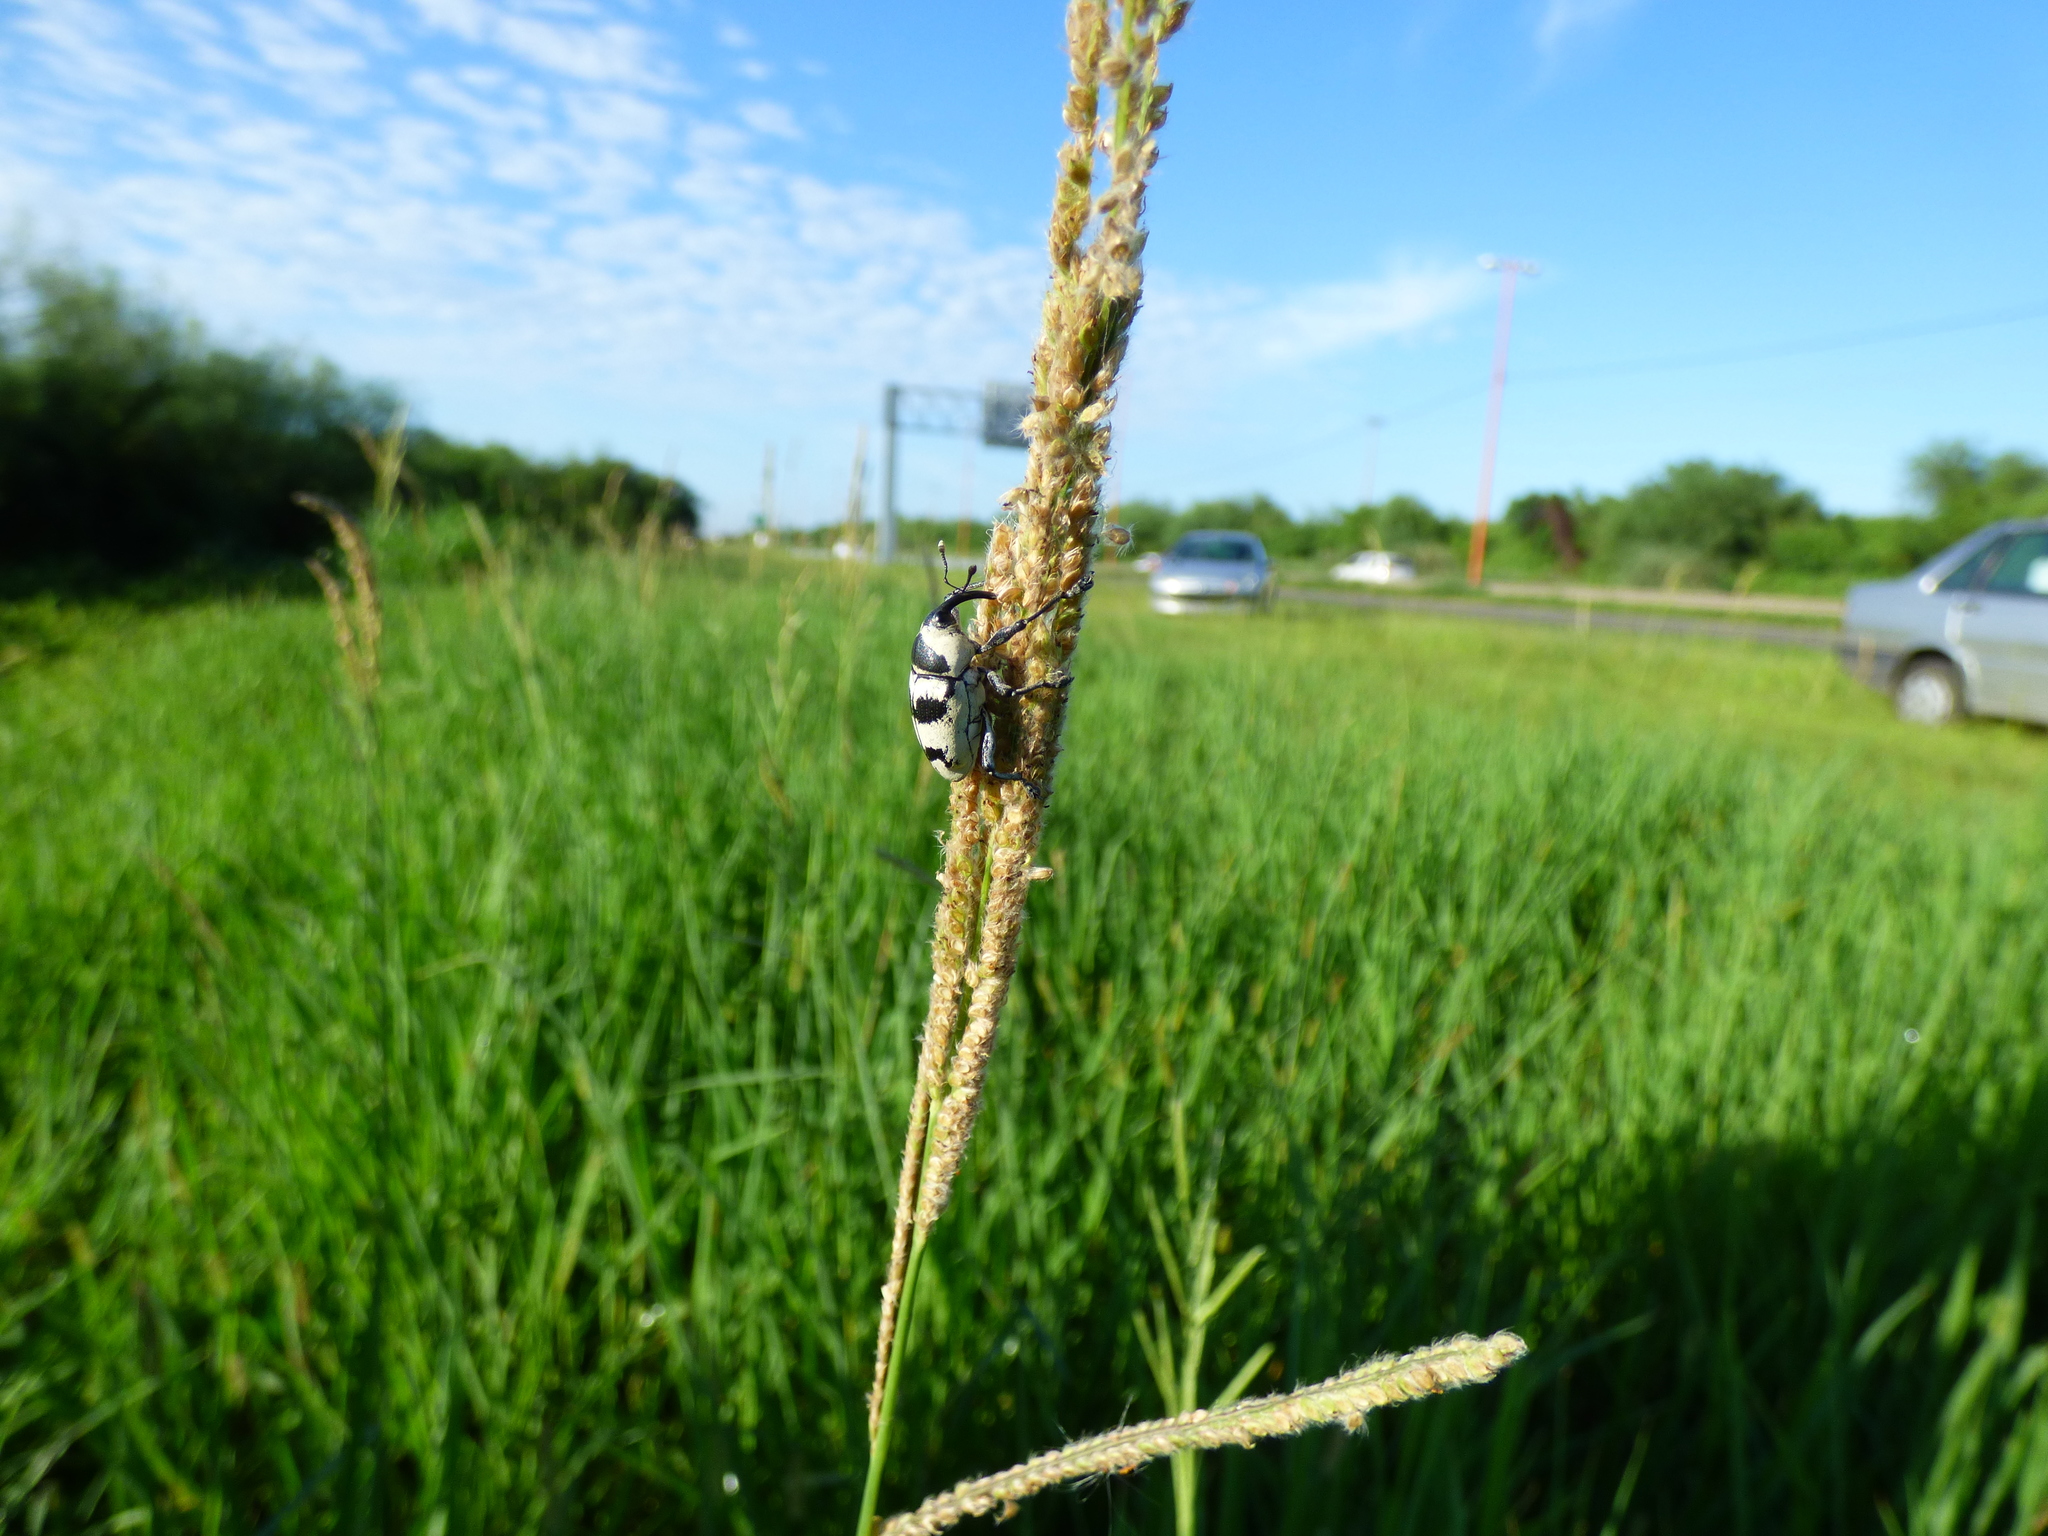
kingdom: Animalia
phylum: Arthropoda
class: Insecta
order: Coleoptera
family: Curculionidae
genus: Cholus
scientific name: Cholus annulatus
